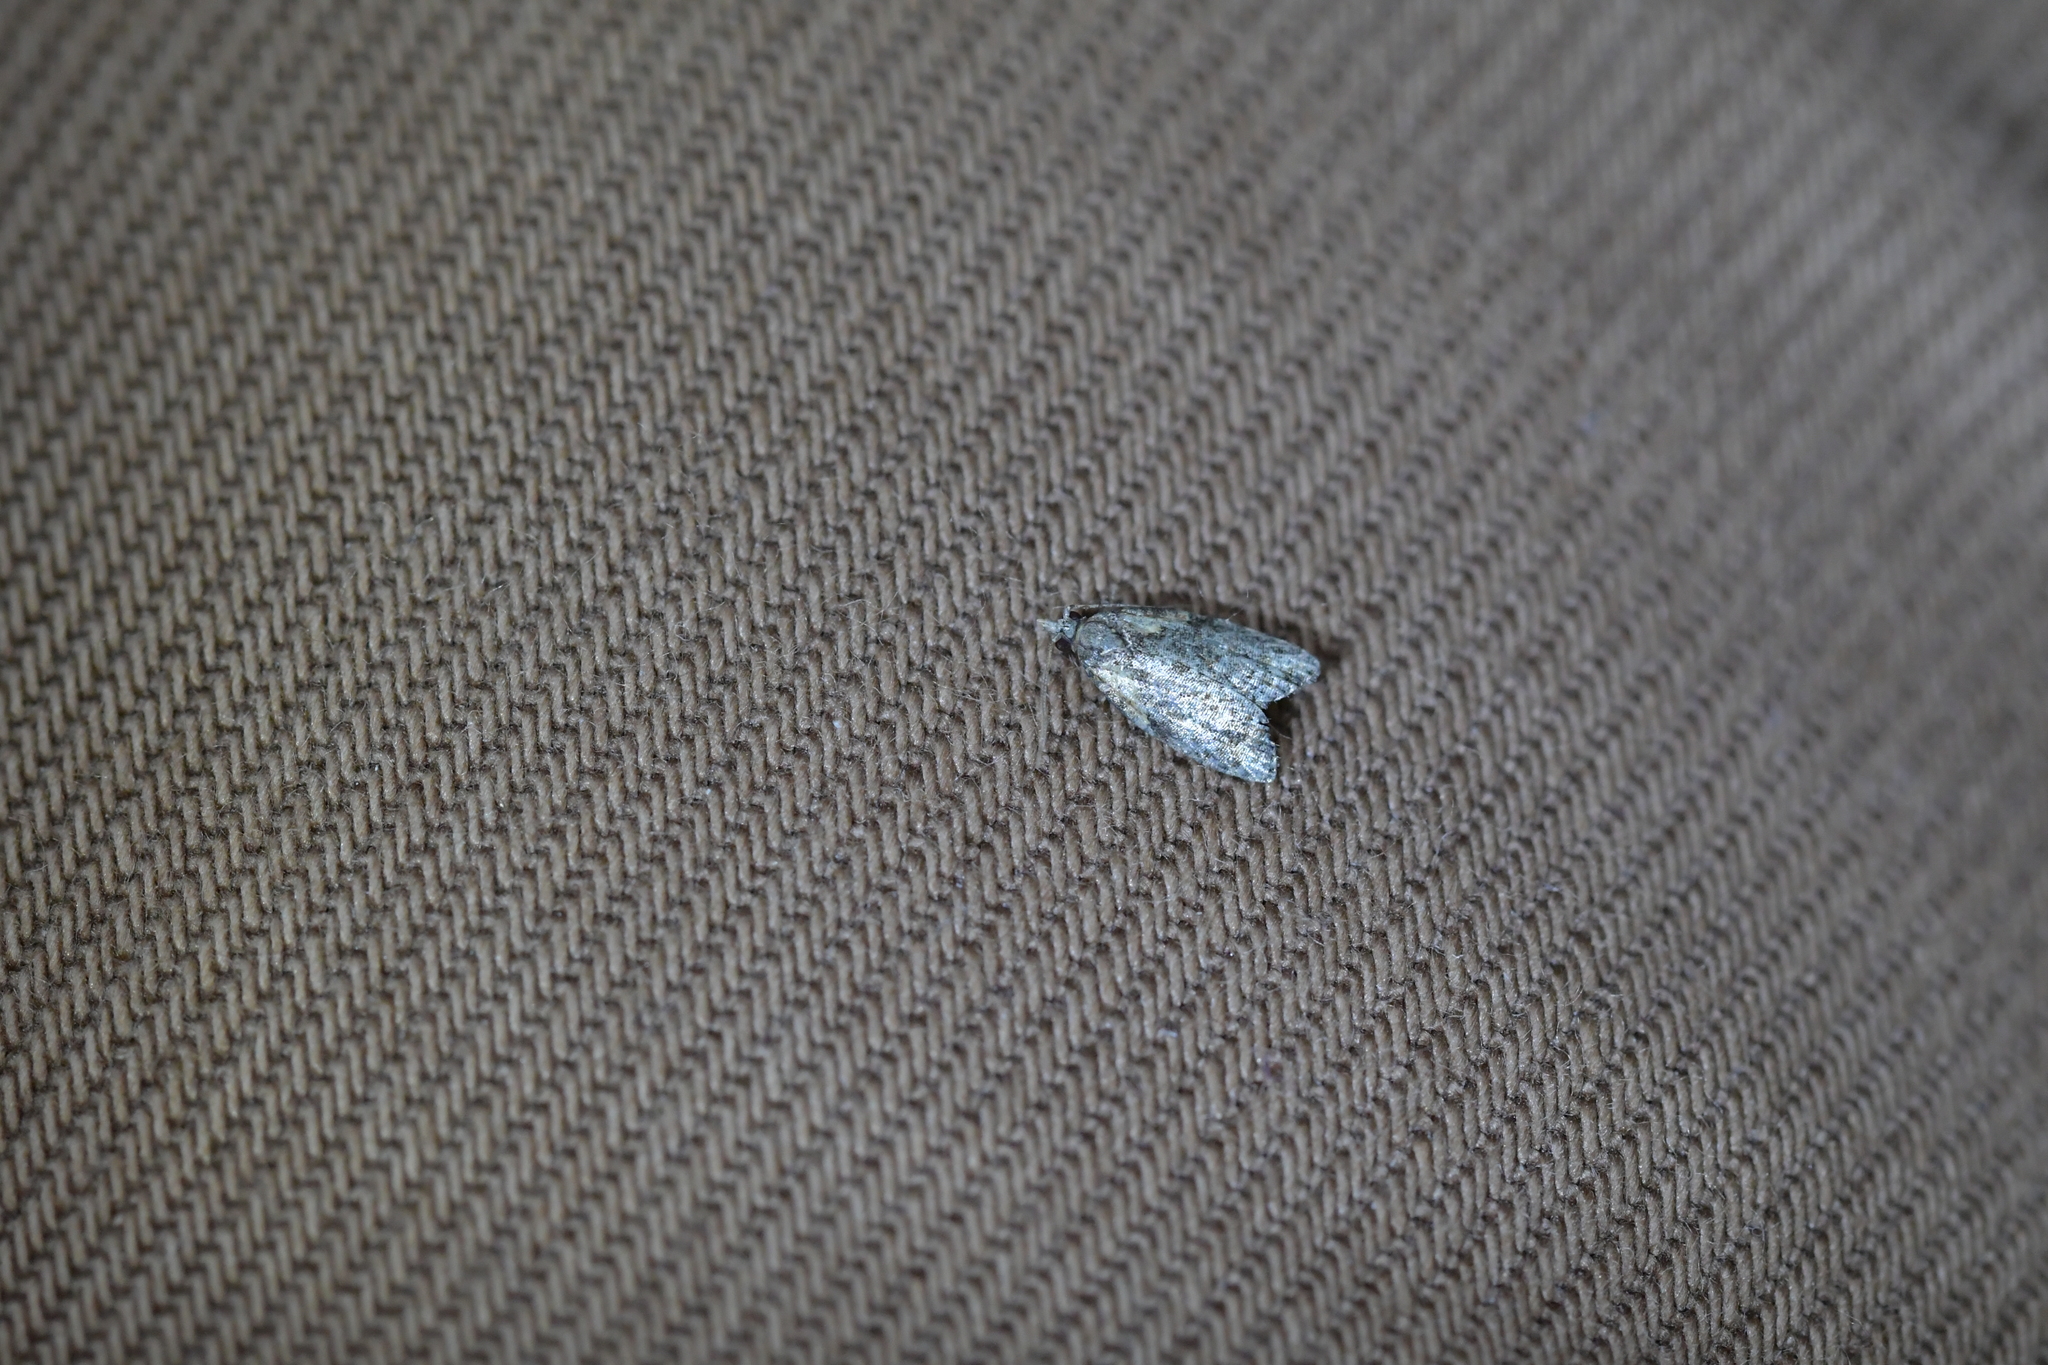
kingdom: Animalia
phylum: Arthropoda
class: Insecta
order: Lepidoptera
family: Tortricidae
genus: Capua
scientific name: Capua intractana
